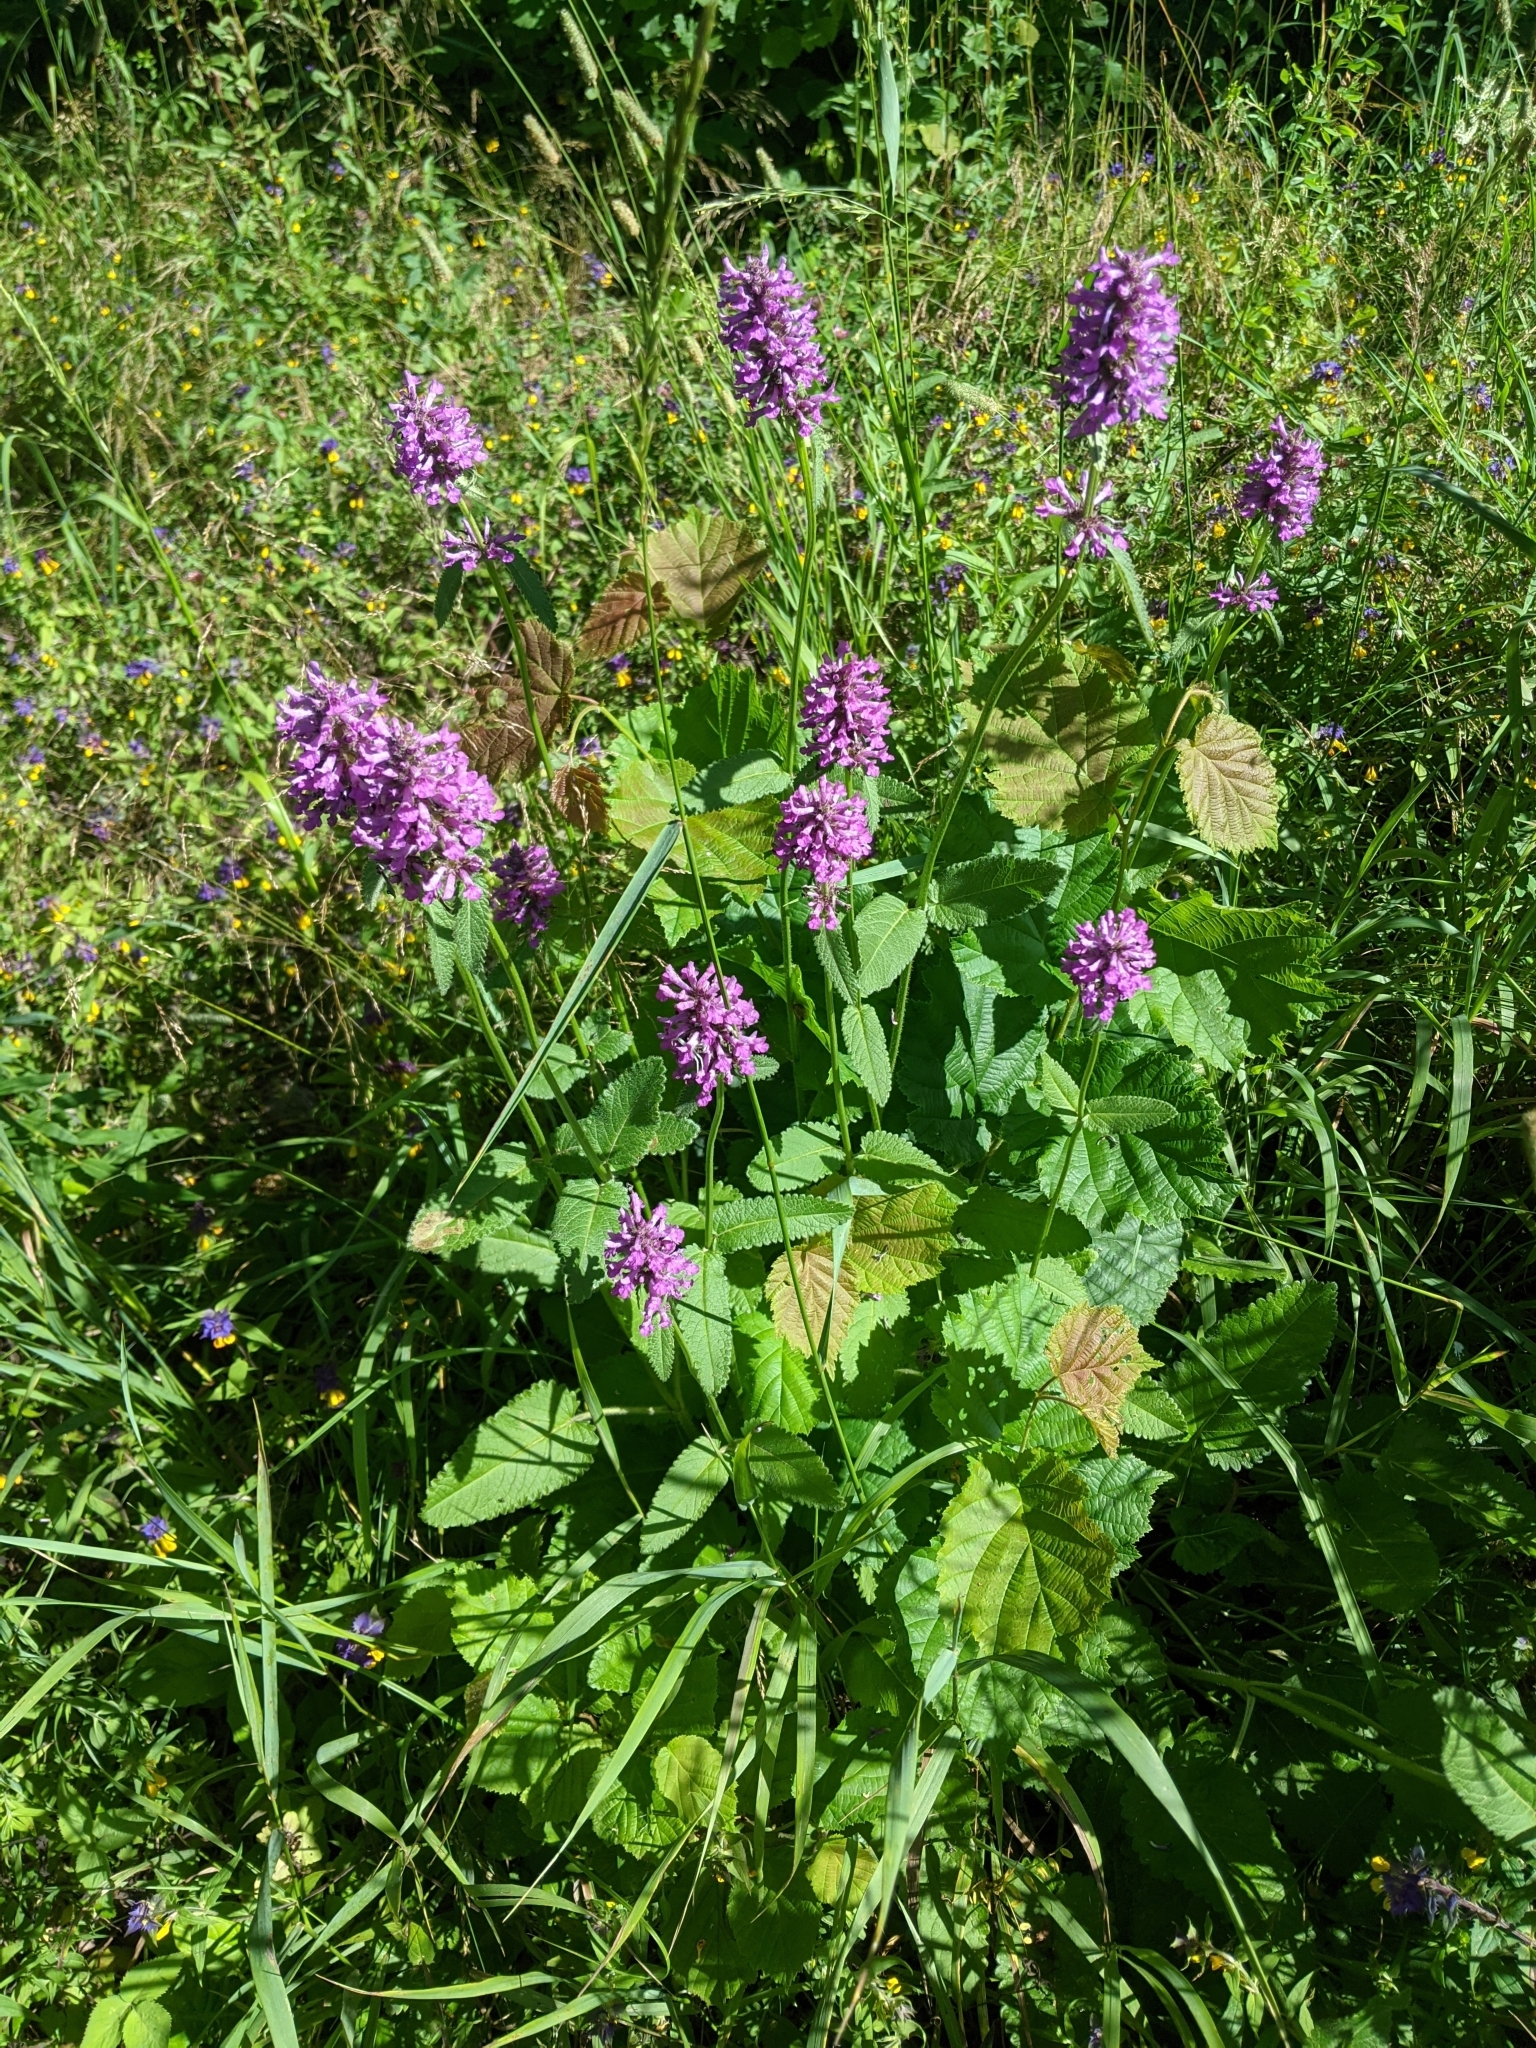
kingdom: Plantae
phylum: Tracheophyta
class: Magnoliopsida
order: Lamiales
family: Lamiaceae
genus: Betonica
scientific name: Betonica officinalis
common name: Bishop's-wort
